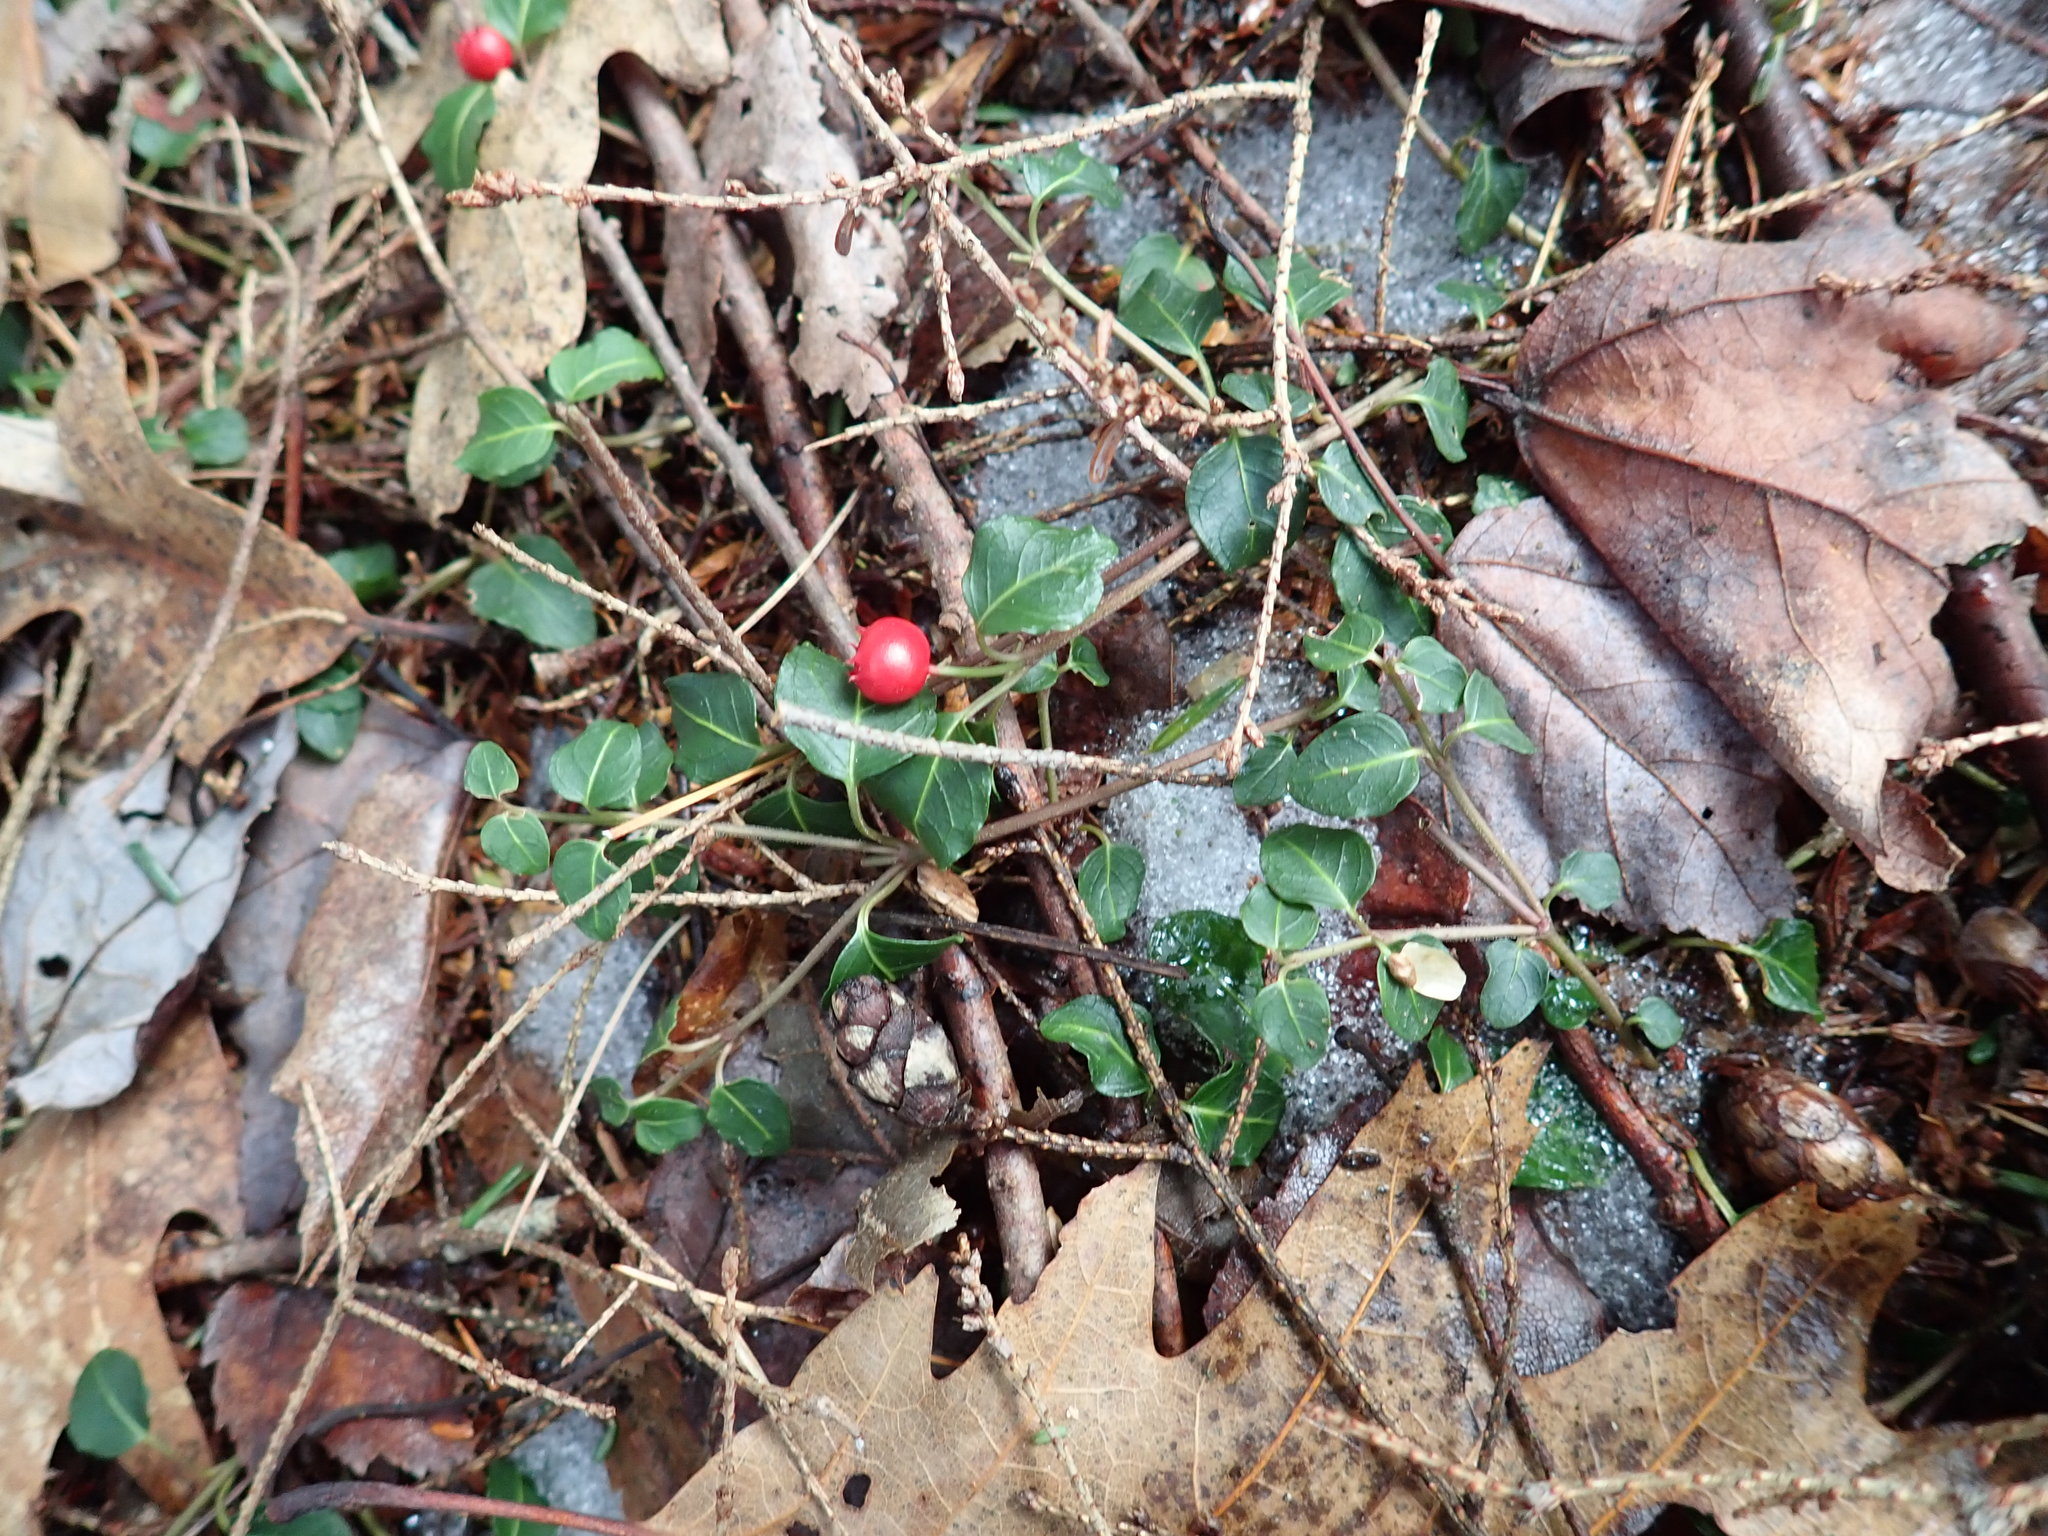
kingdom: Plantae
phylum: Tracheophyta
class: Magnoliopsida
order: Gentianales
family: Rubiaceae
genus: Mitchella
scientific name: Mitchella repens
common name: Partridge-berry
